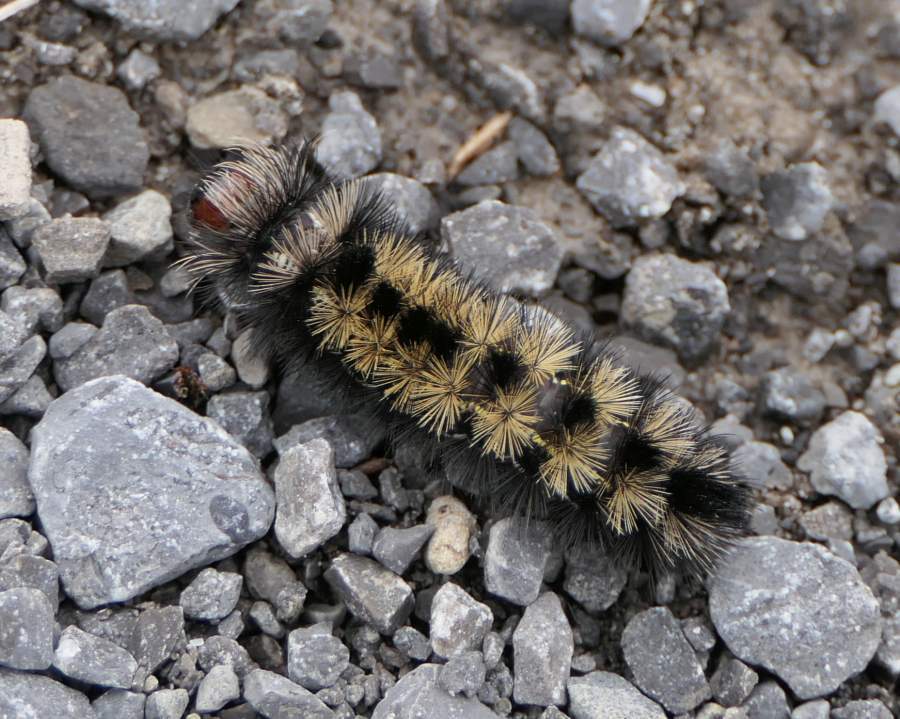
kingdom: Animalia
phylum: Arthropoda
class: Insecta
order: Lepidoptera
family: Erebidae
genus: Ctenucha
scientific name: Ctenucha virginica
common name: Virginia ctenucha moth
